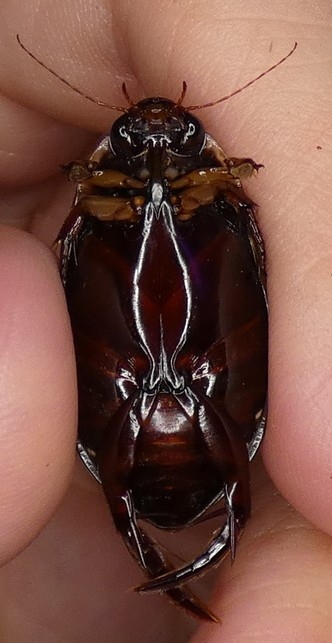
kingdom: Animalia
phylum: Arthropoda
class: Insecta
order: Coleoptera
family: Dytiscidae
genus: Cybister
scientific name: Cybister fimbriolatus
